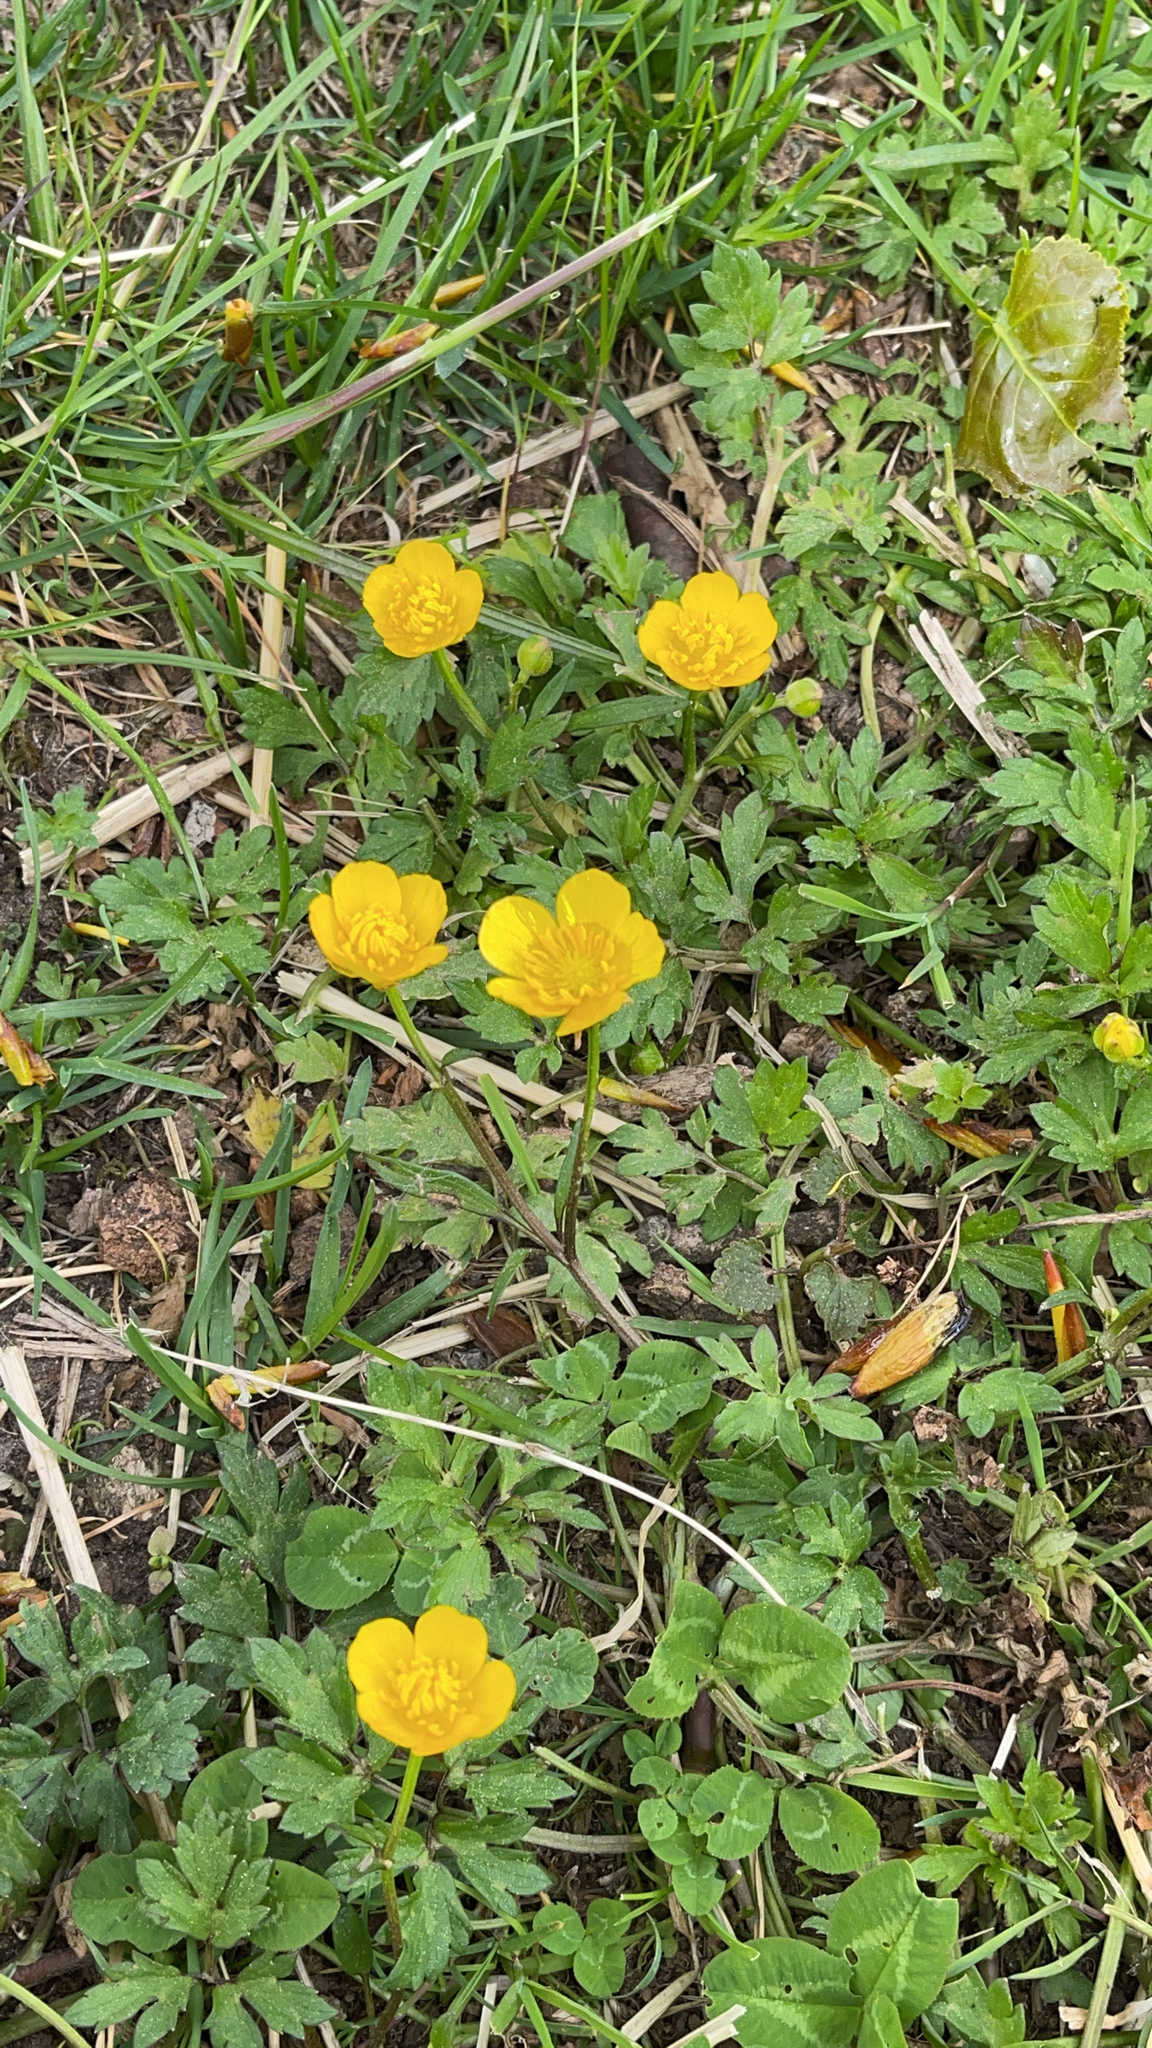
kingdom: Plantae
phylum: Tracheophyta
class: Magnoliopsida
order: Ranunculales
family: Ranunculaceae
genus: Ranunculus
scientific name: Ranunculus repens
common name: Creeping buttercup
